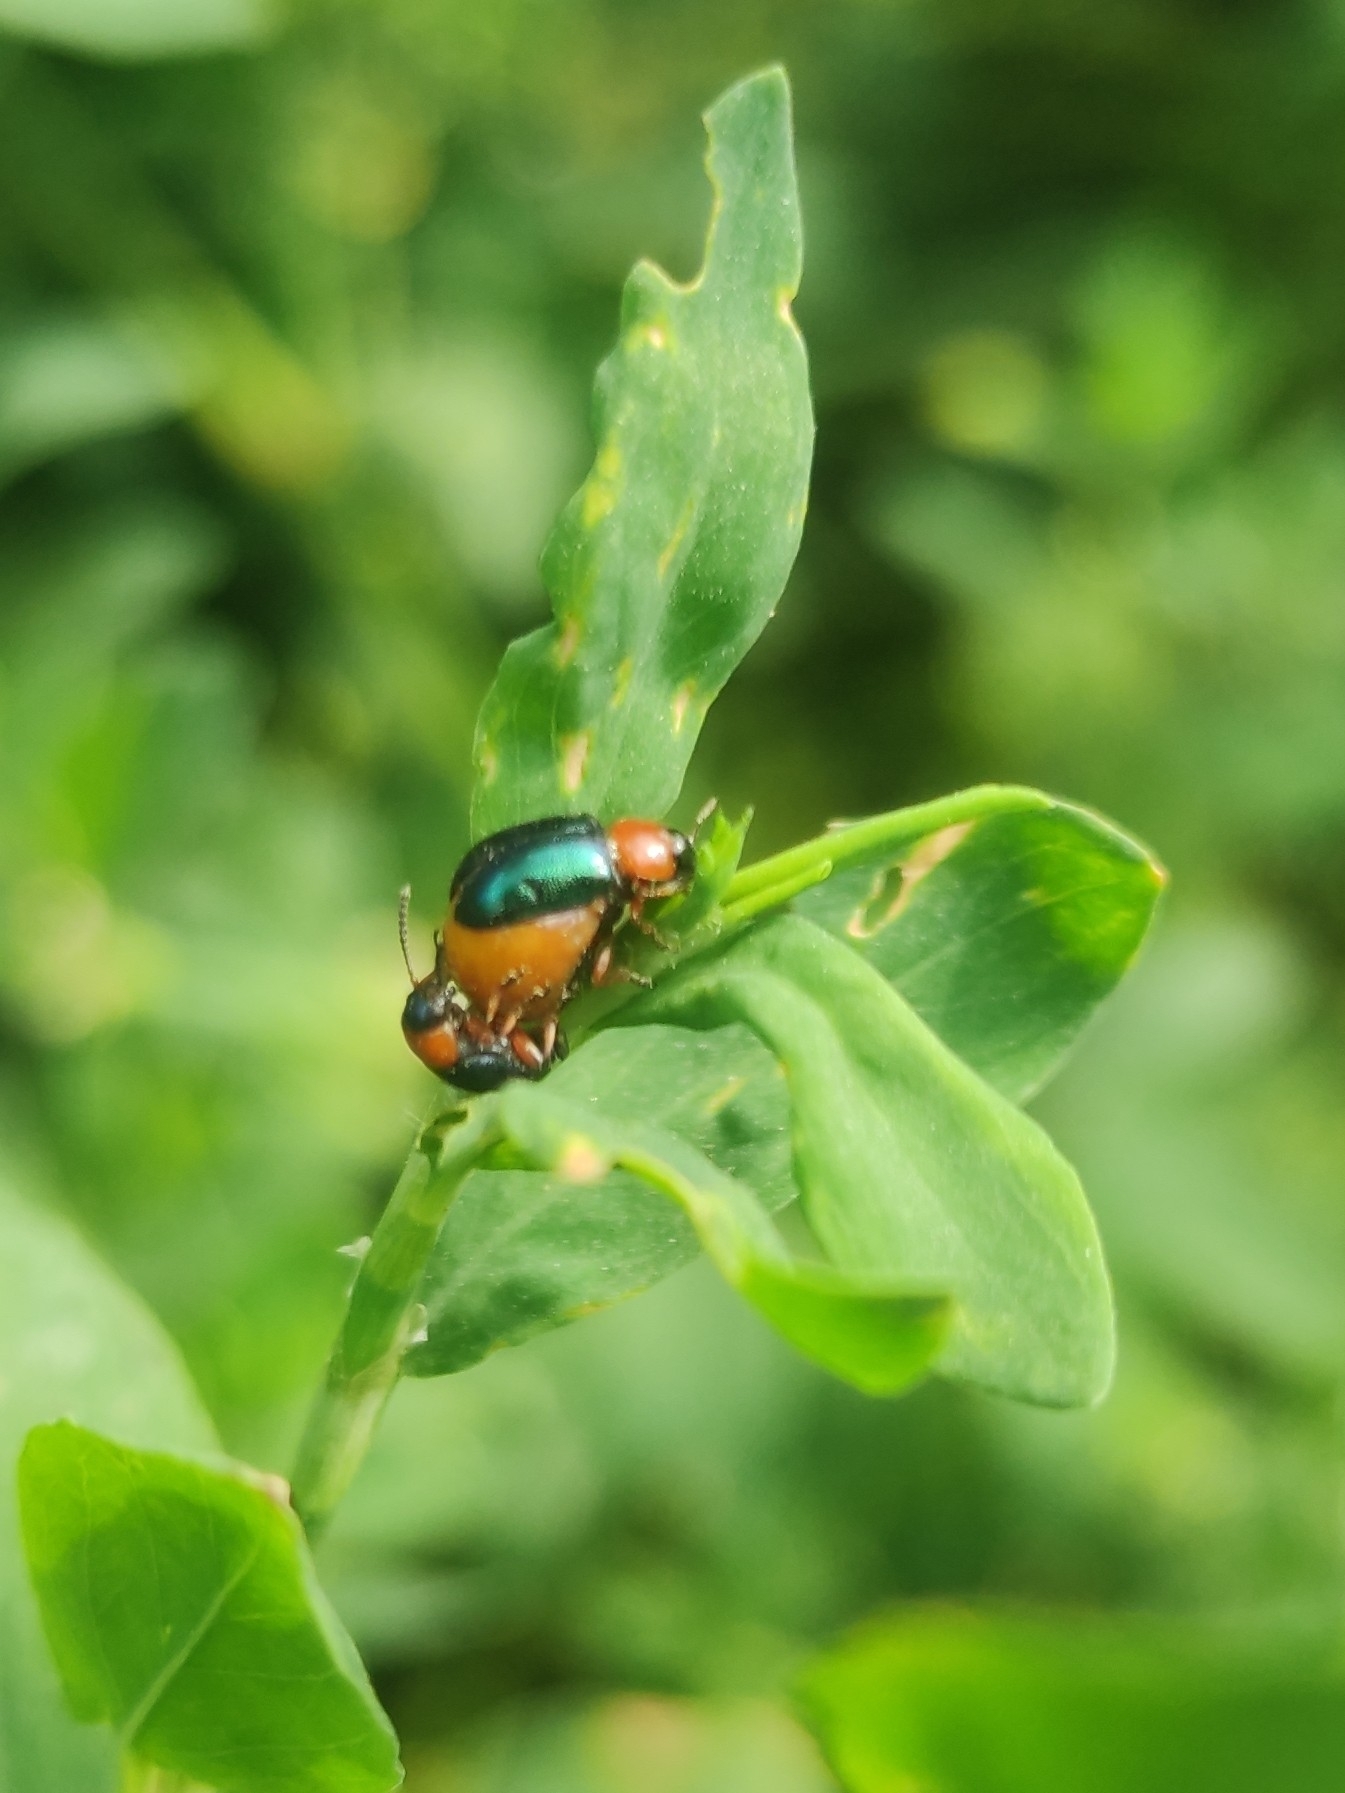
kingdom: Animalia
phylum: Arthropoda
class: Insecta
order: Coleoptera
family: Chrysomelidae
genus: Gastrophysa
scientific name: Gastrophysa polygoni
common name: Knotweed leaf beetle
